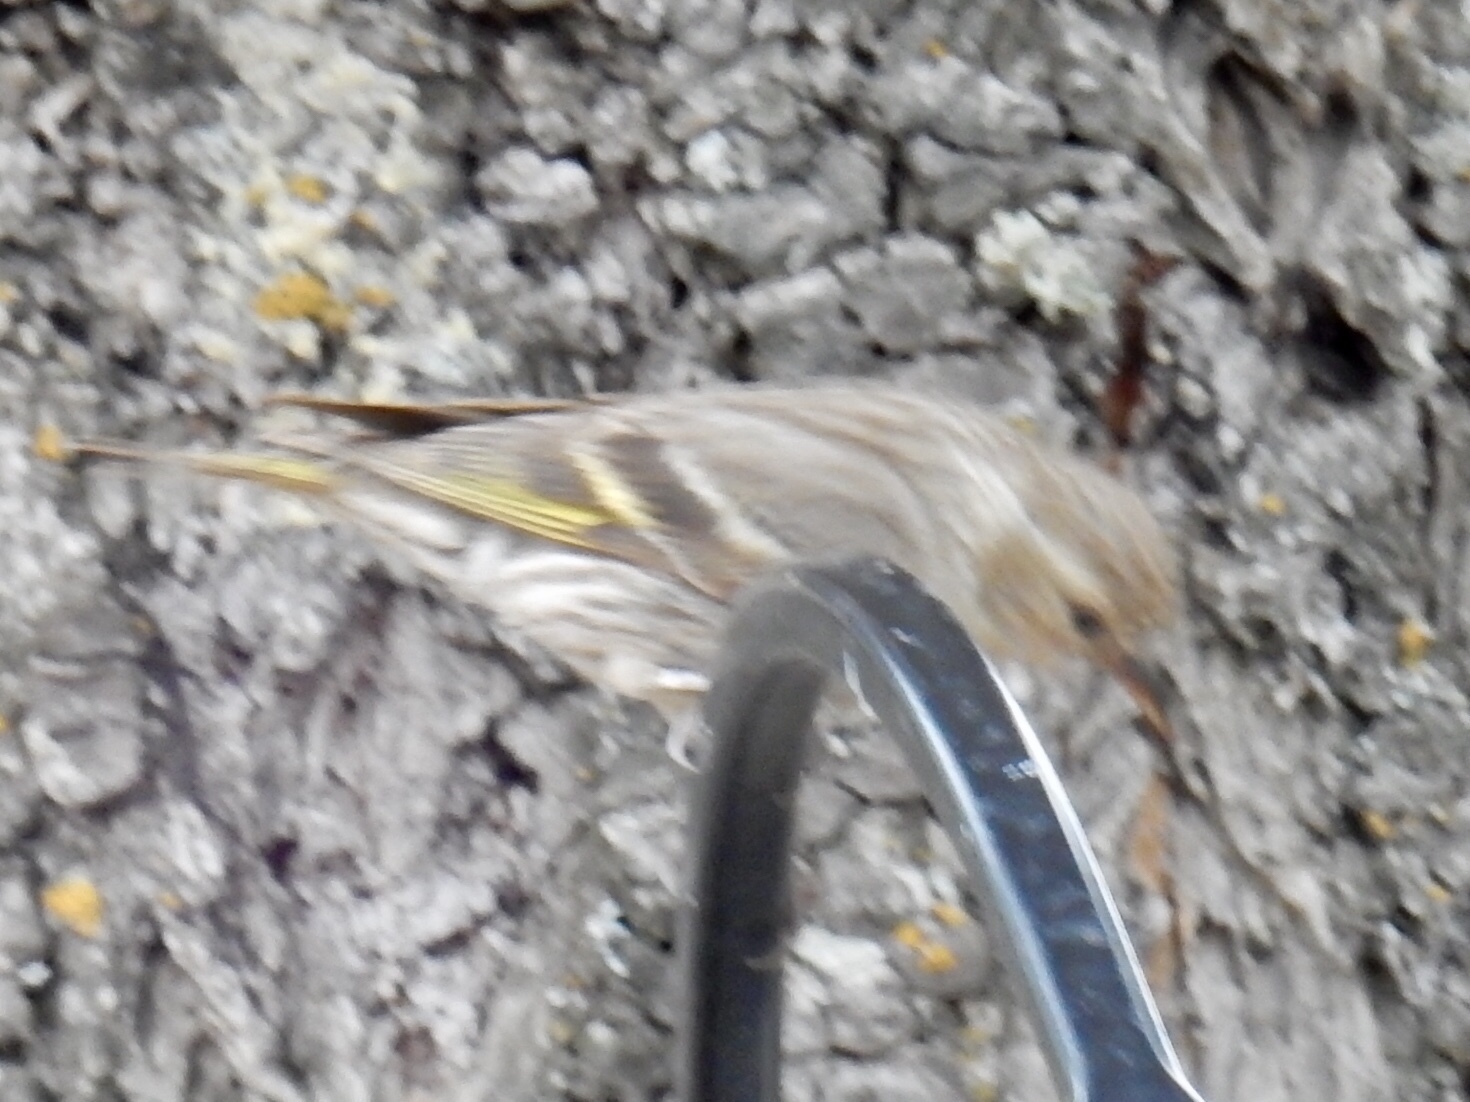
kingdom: Animalia
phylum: Chordata
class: Aves
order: Passeriformes
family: Fringillidae
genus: Spinus
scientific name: Spinus pinus
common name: Pine siskin
